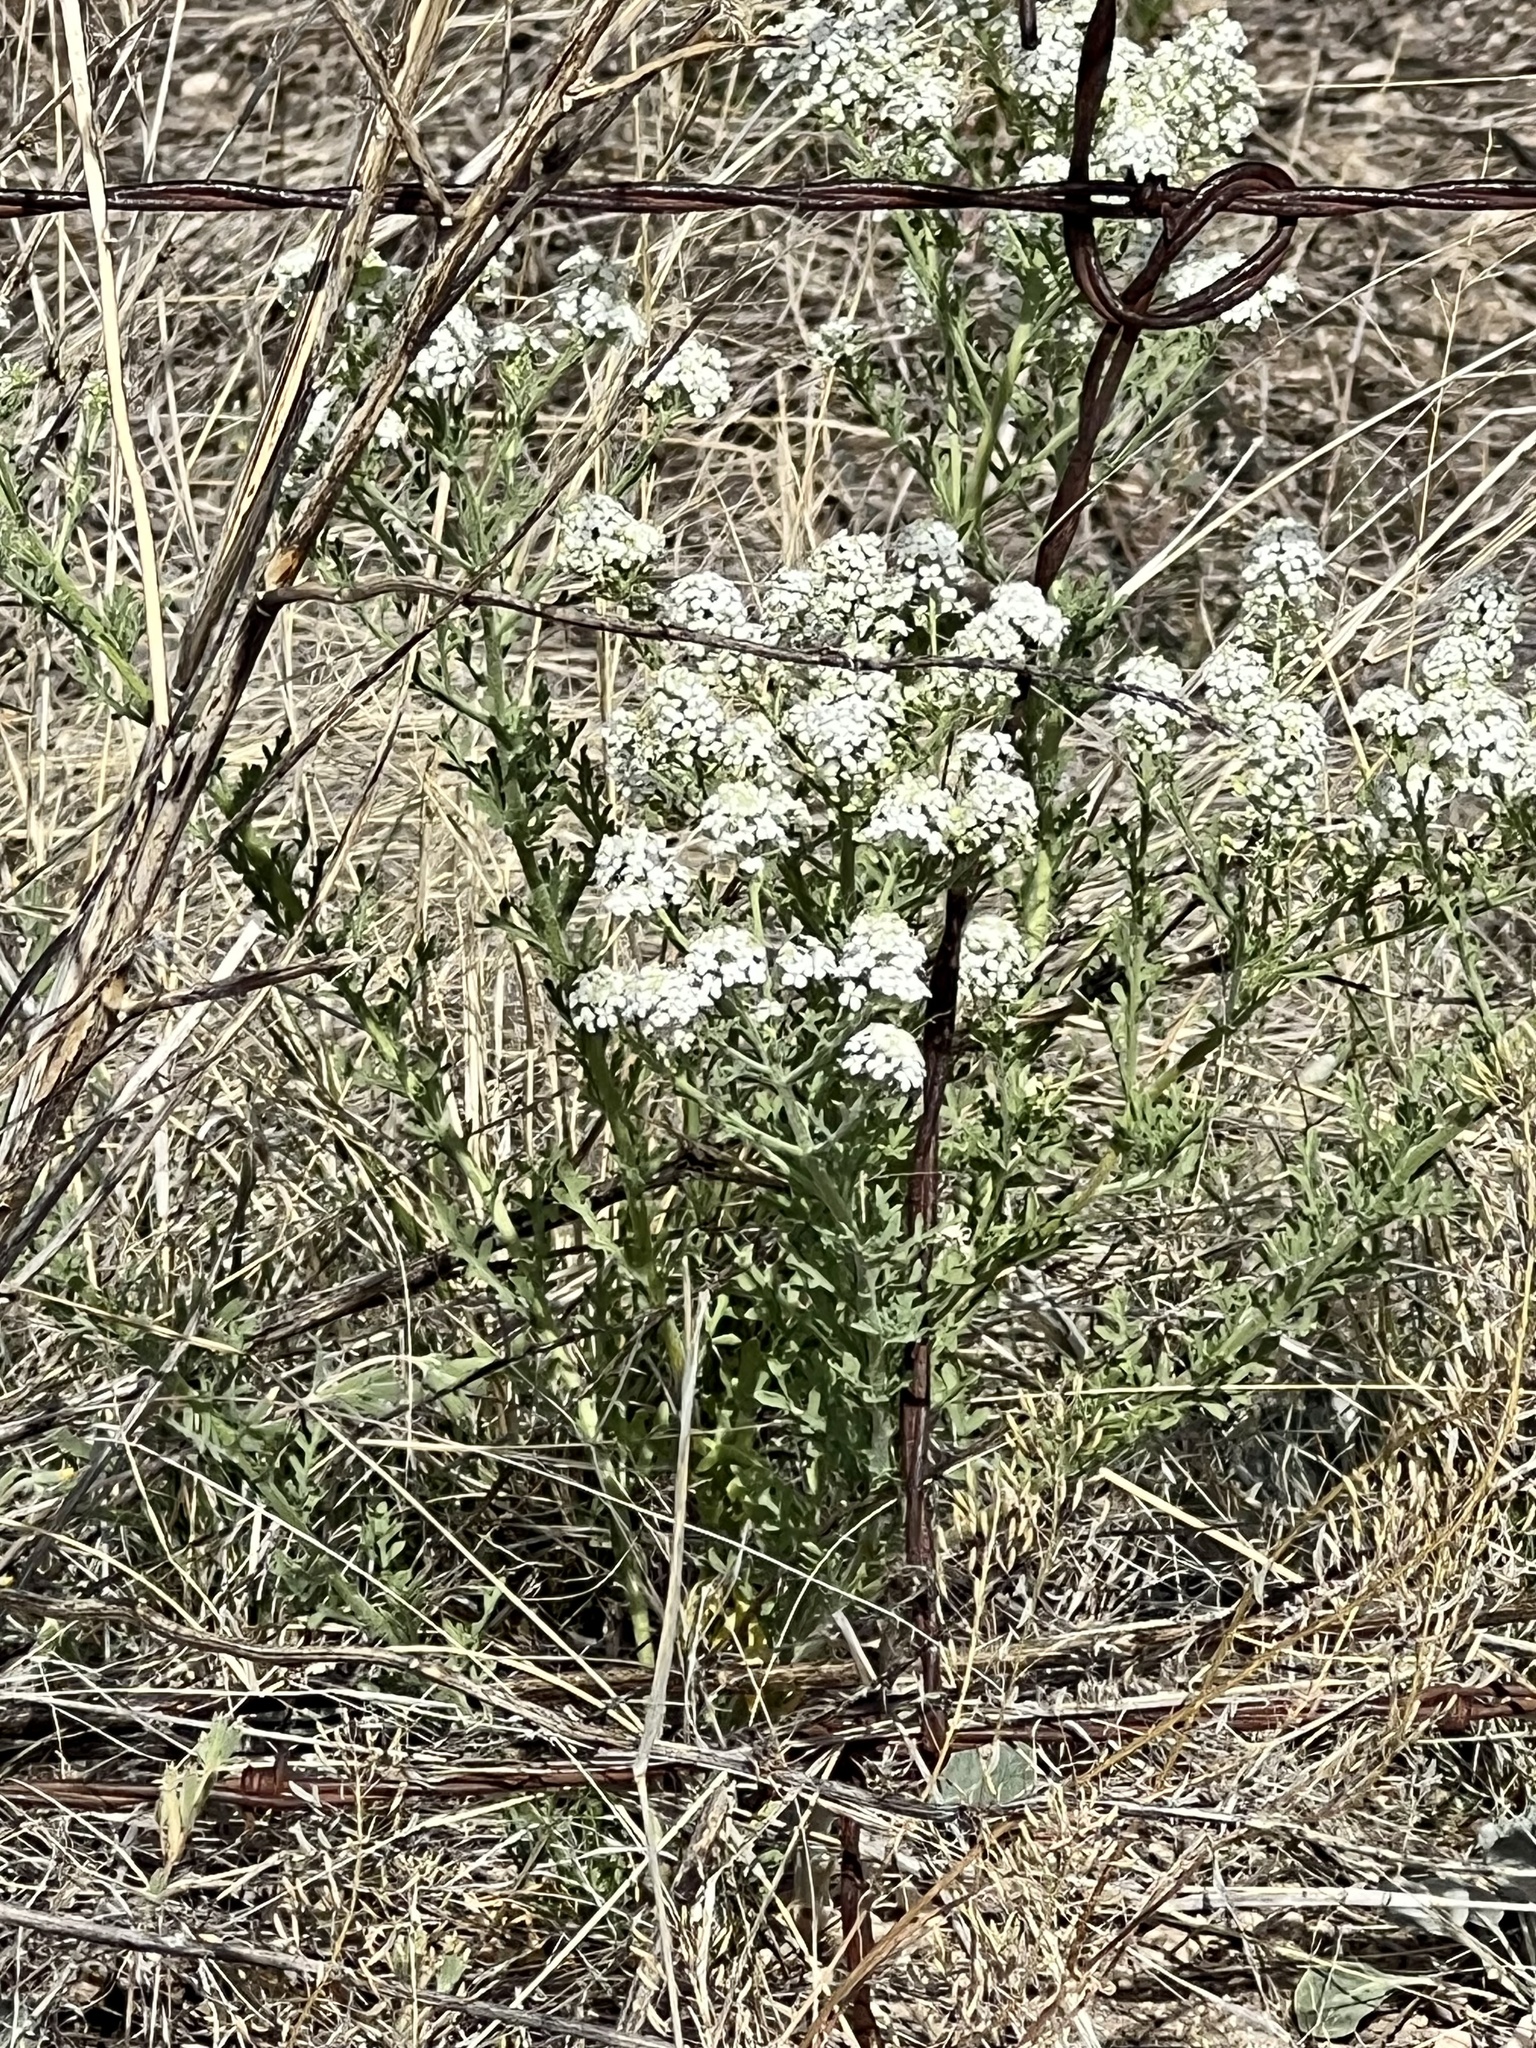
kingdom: Plantae
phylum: Tracheophyta
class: Magnoliopsida
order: Brassicales
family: Brassicaceae
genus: Lepidium
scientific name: Lepidium thurberi
